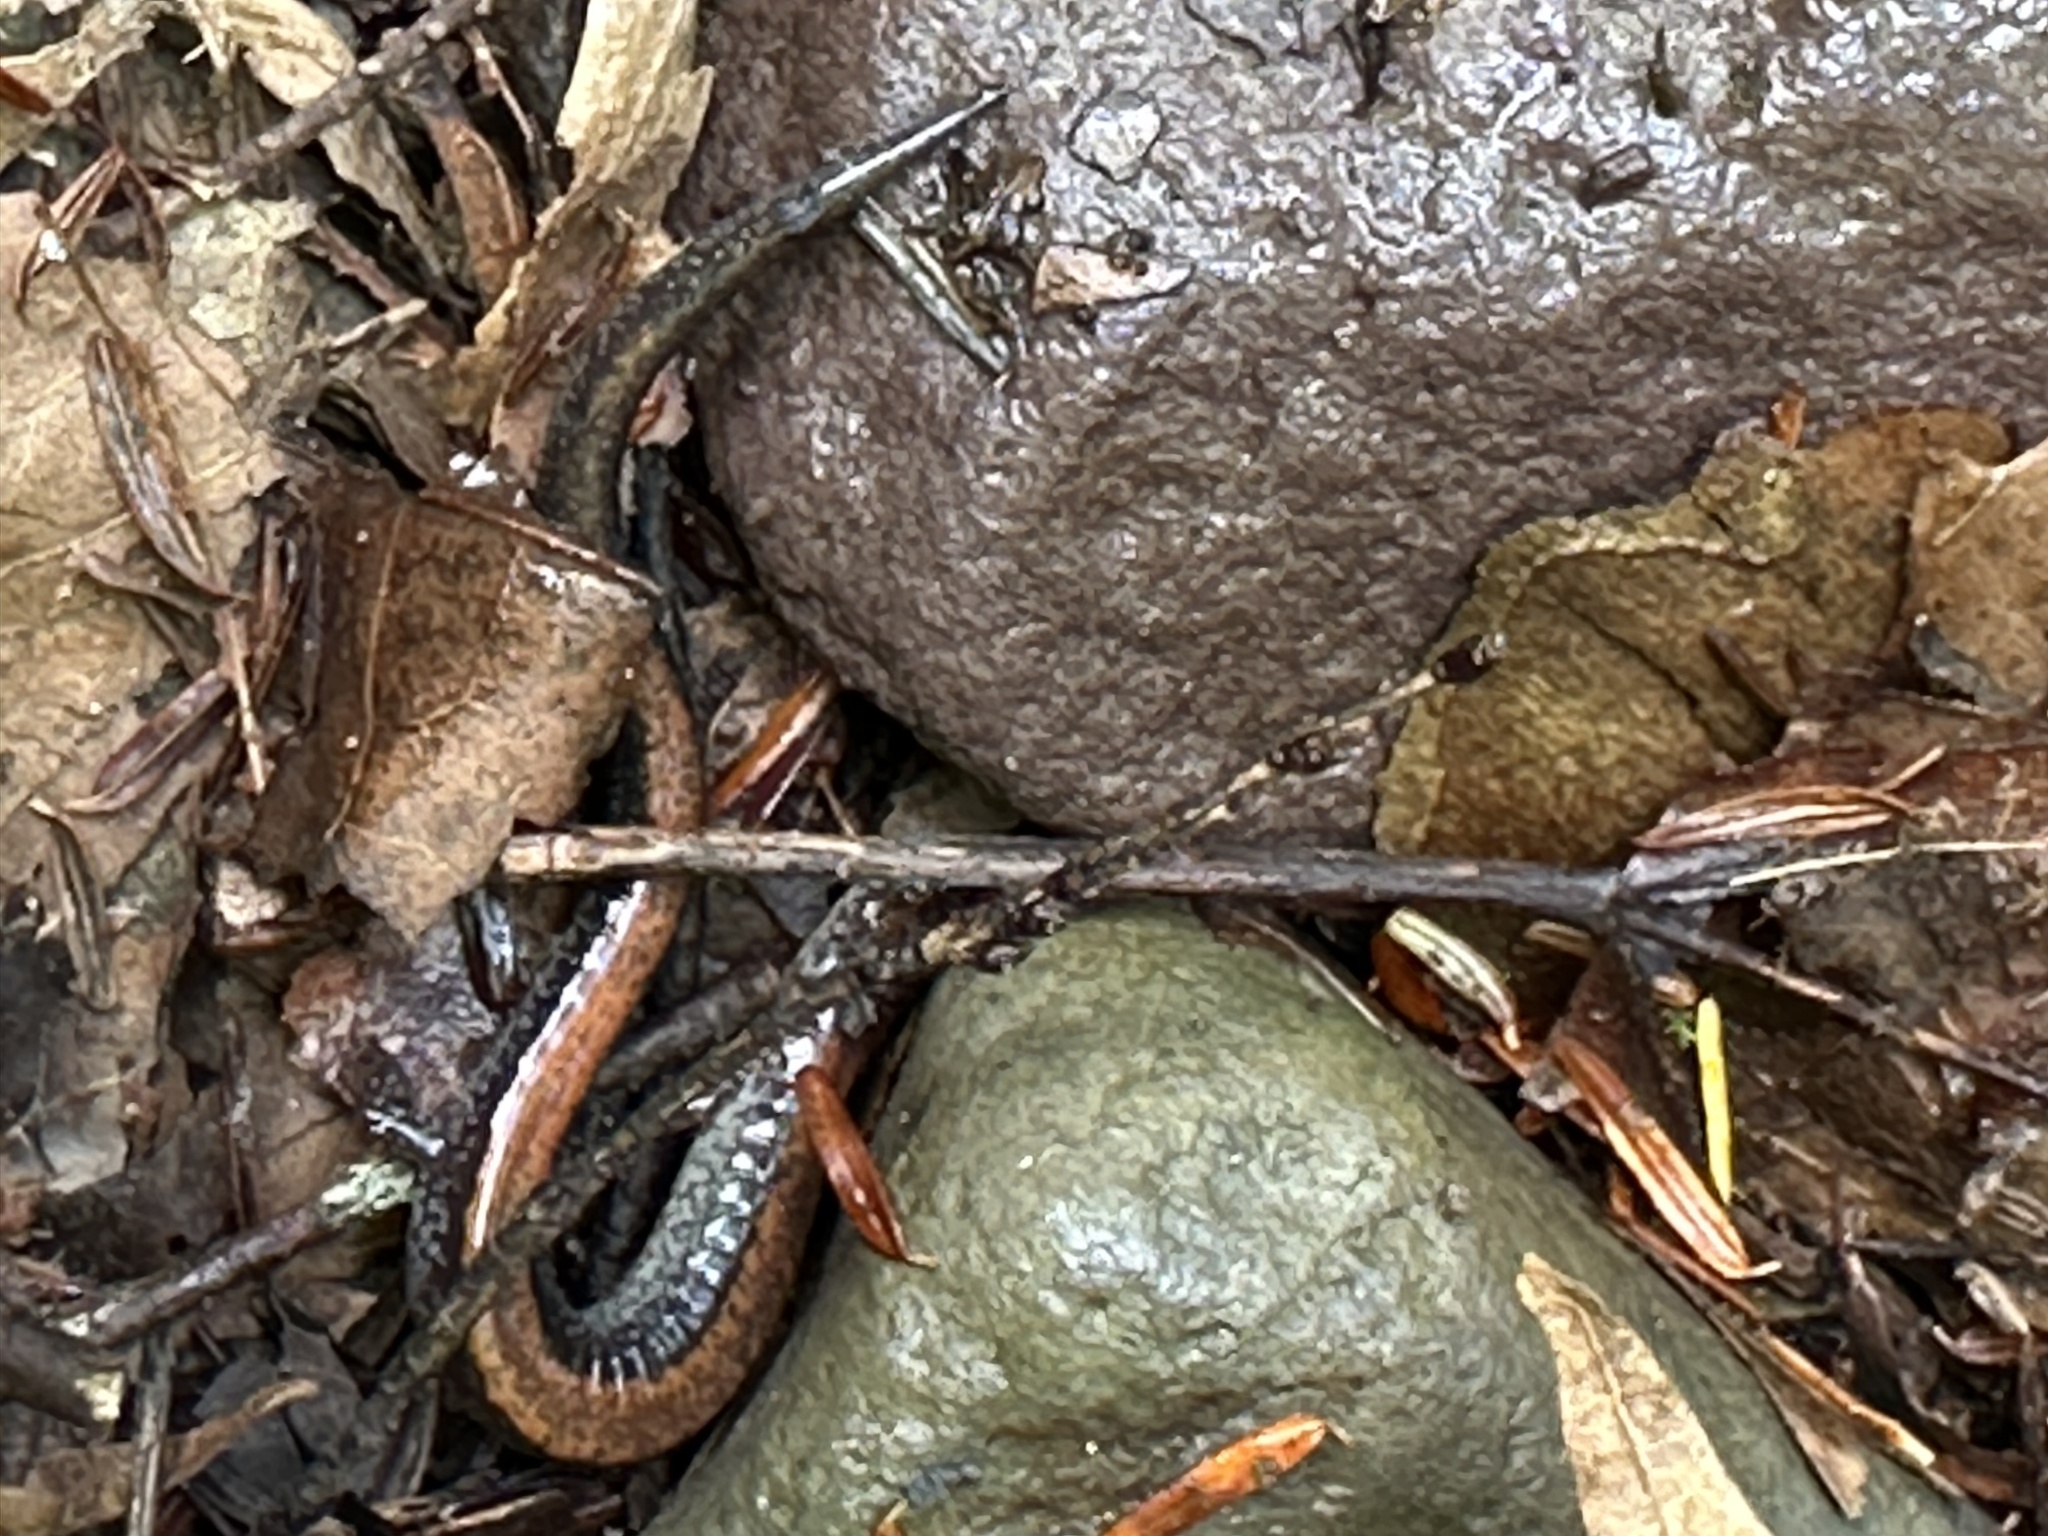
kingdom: Animalia
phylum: Chordata
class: Amphibia
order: Caudata
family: Plethodontidae
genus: Plethodon
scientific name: Plethodon cinereus
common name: Redback salamander
